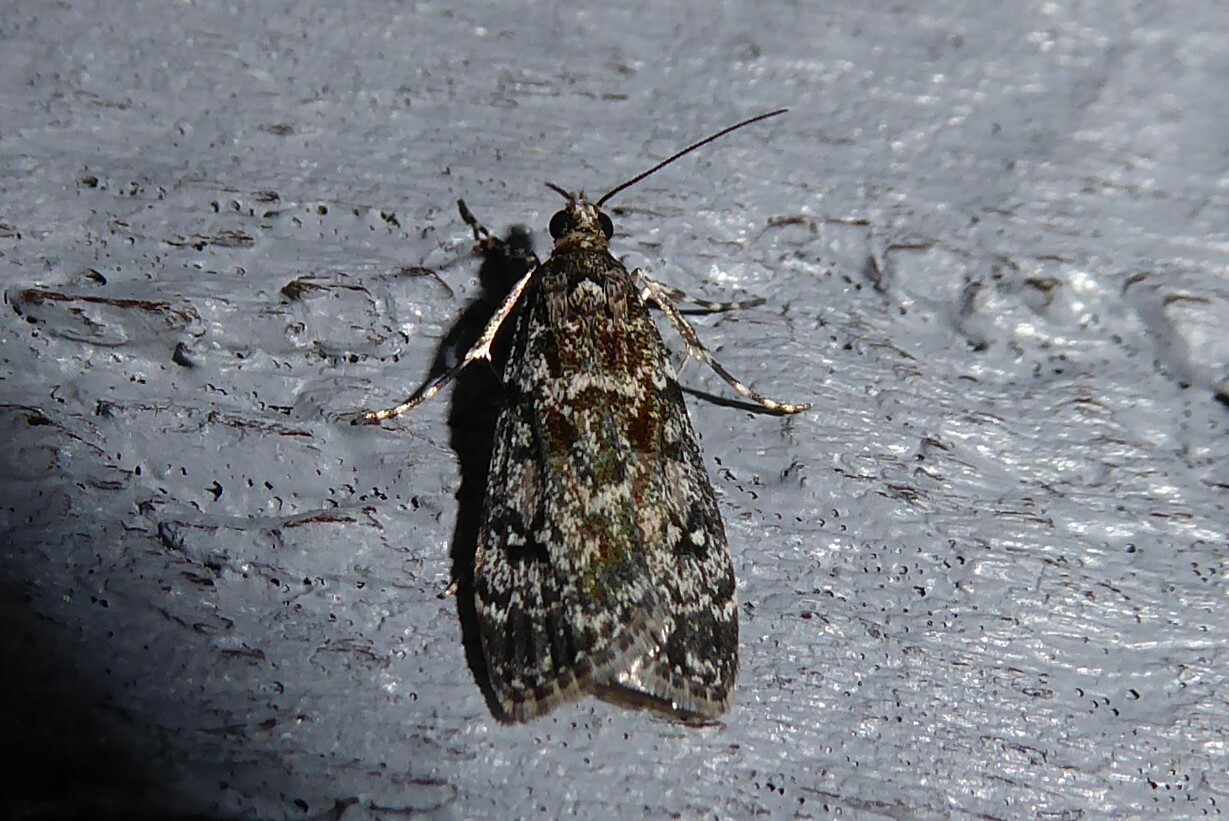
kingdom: Animalia
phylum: Arthropoda
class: Insecta
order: Lepidoptera
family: Crambidae
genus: Eudonia
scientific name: Eudonia philerga
